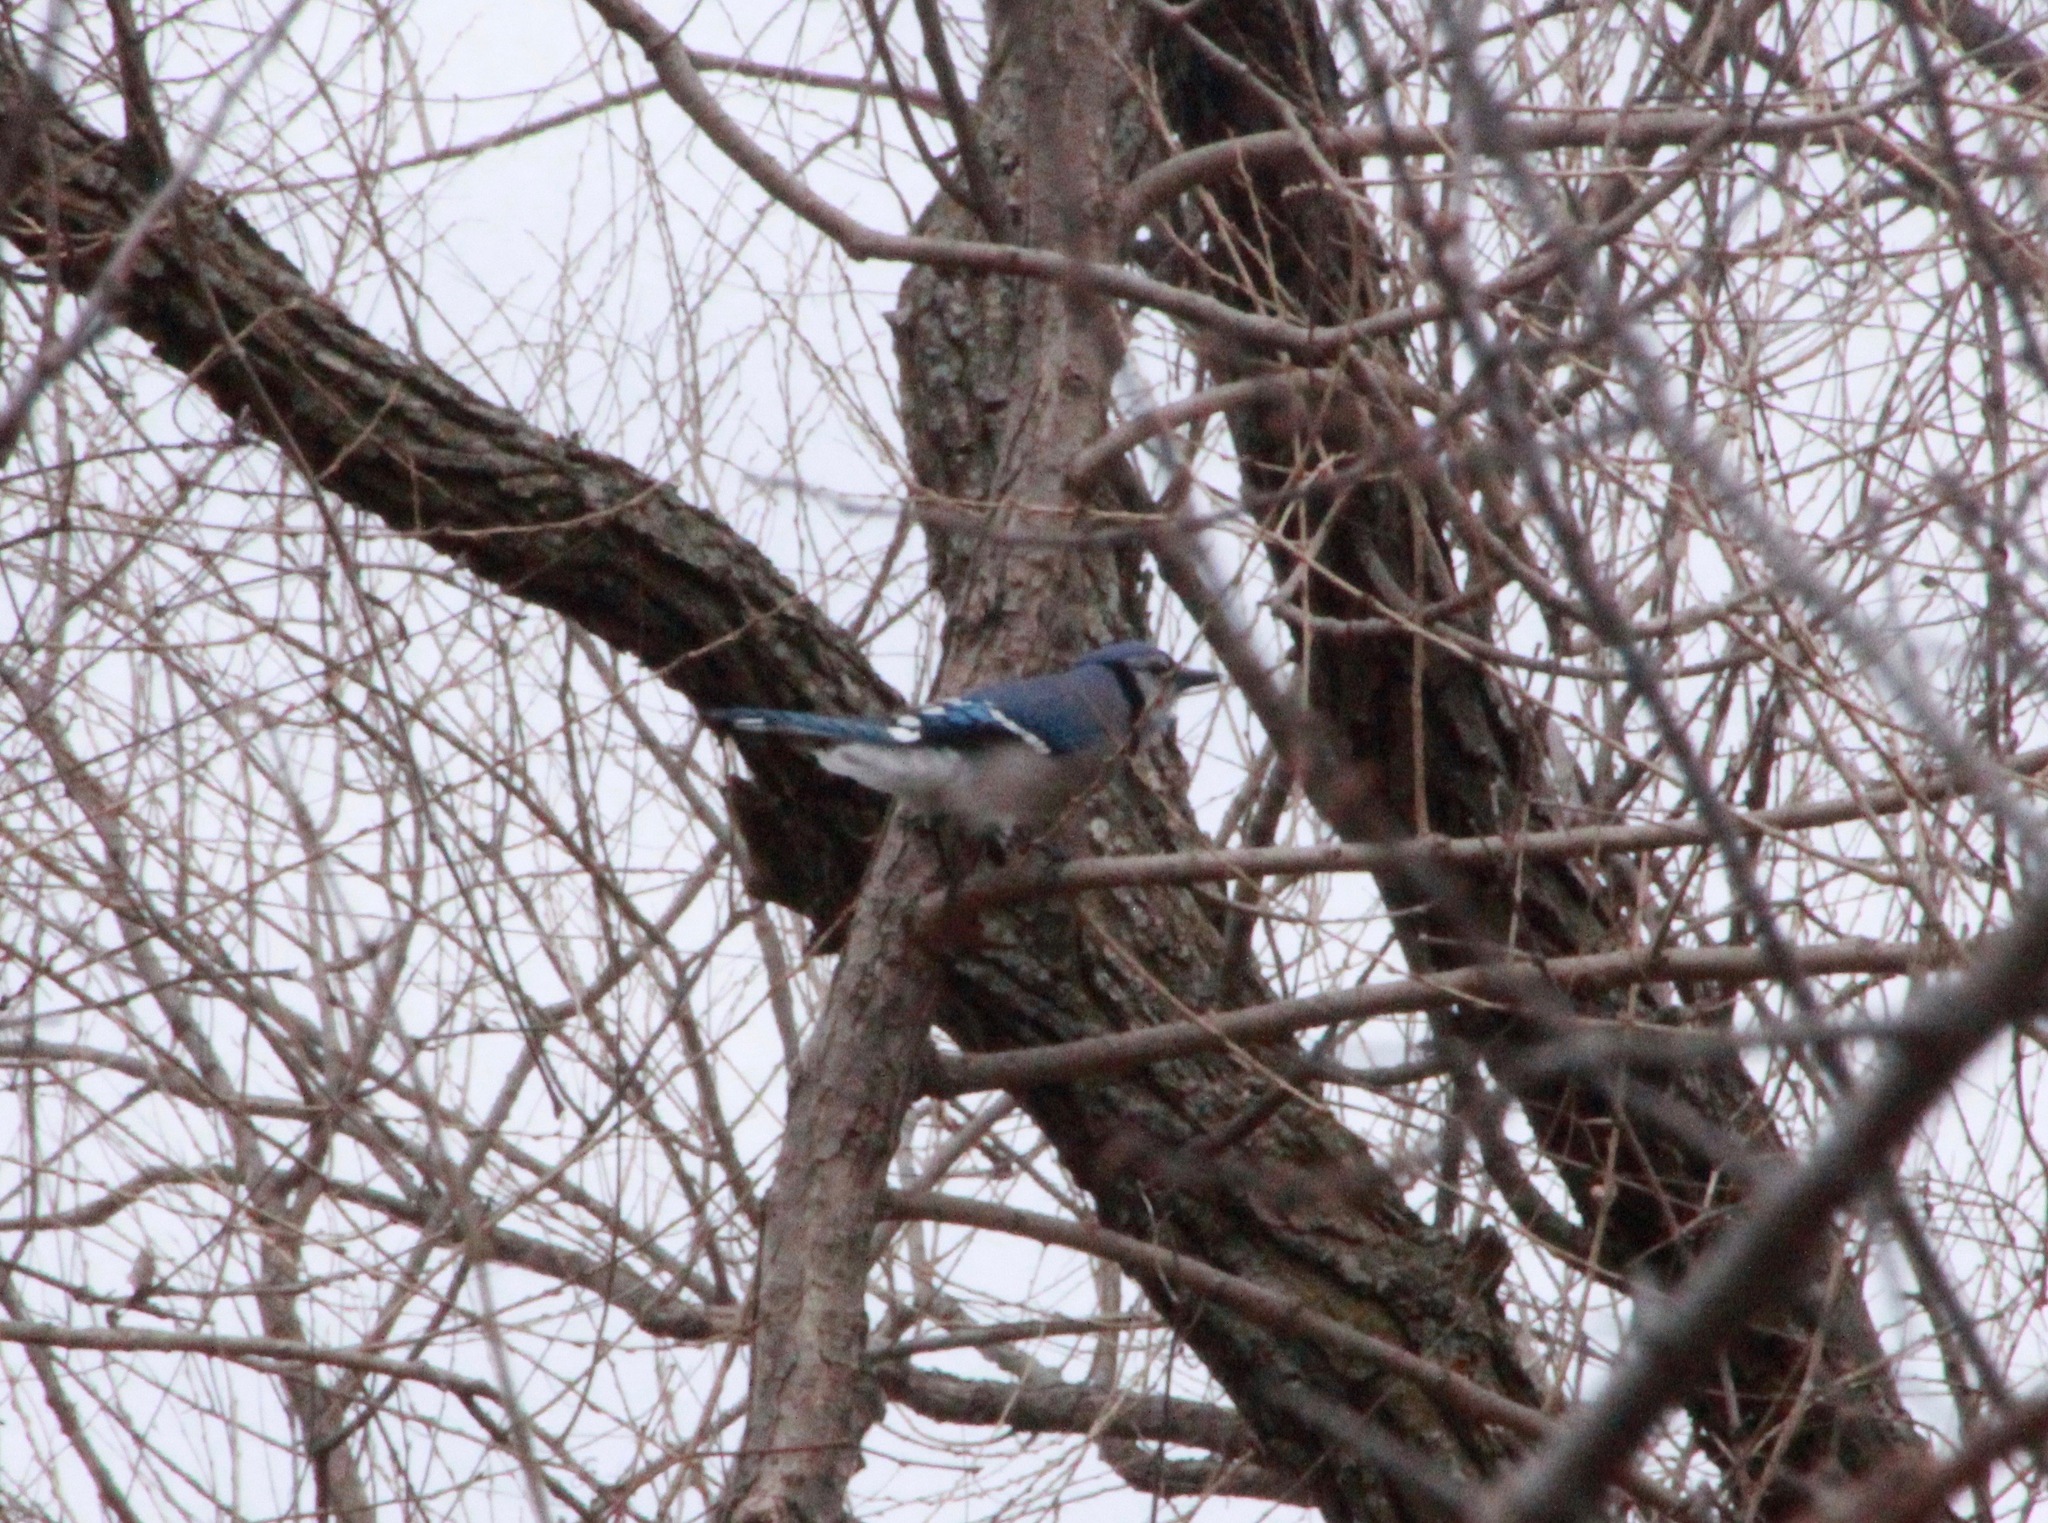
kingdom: Animalia
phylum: Chordata
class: Aves
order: Passeriformes
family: Corvidae
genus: Cyanocitta
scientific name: Cyanocitta cristata
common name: Blue jay
